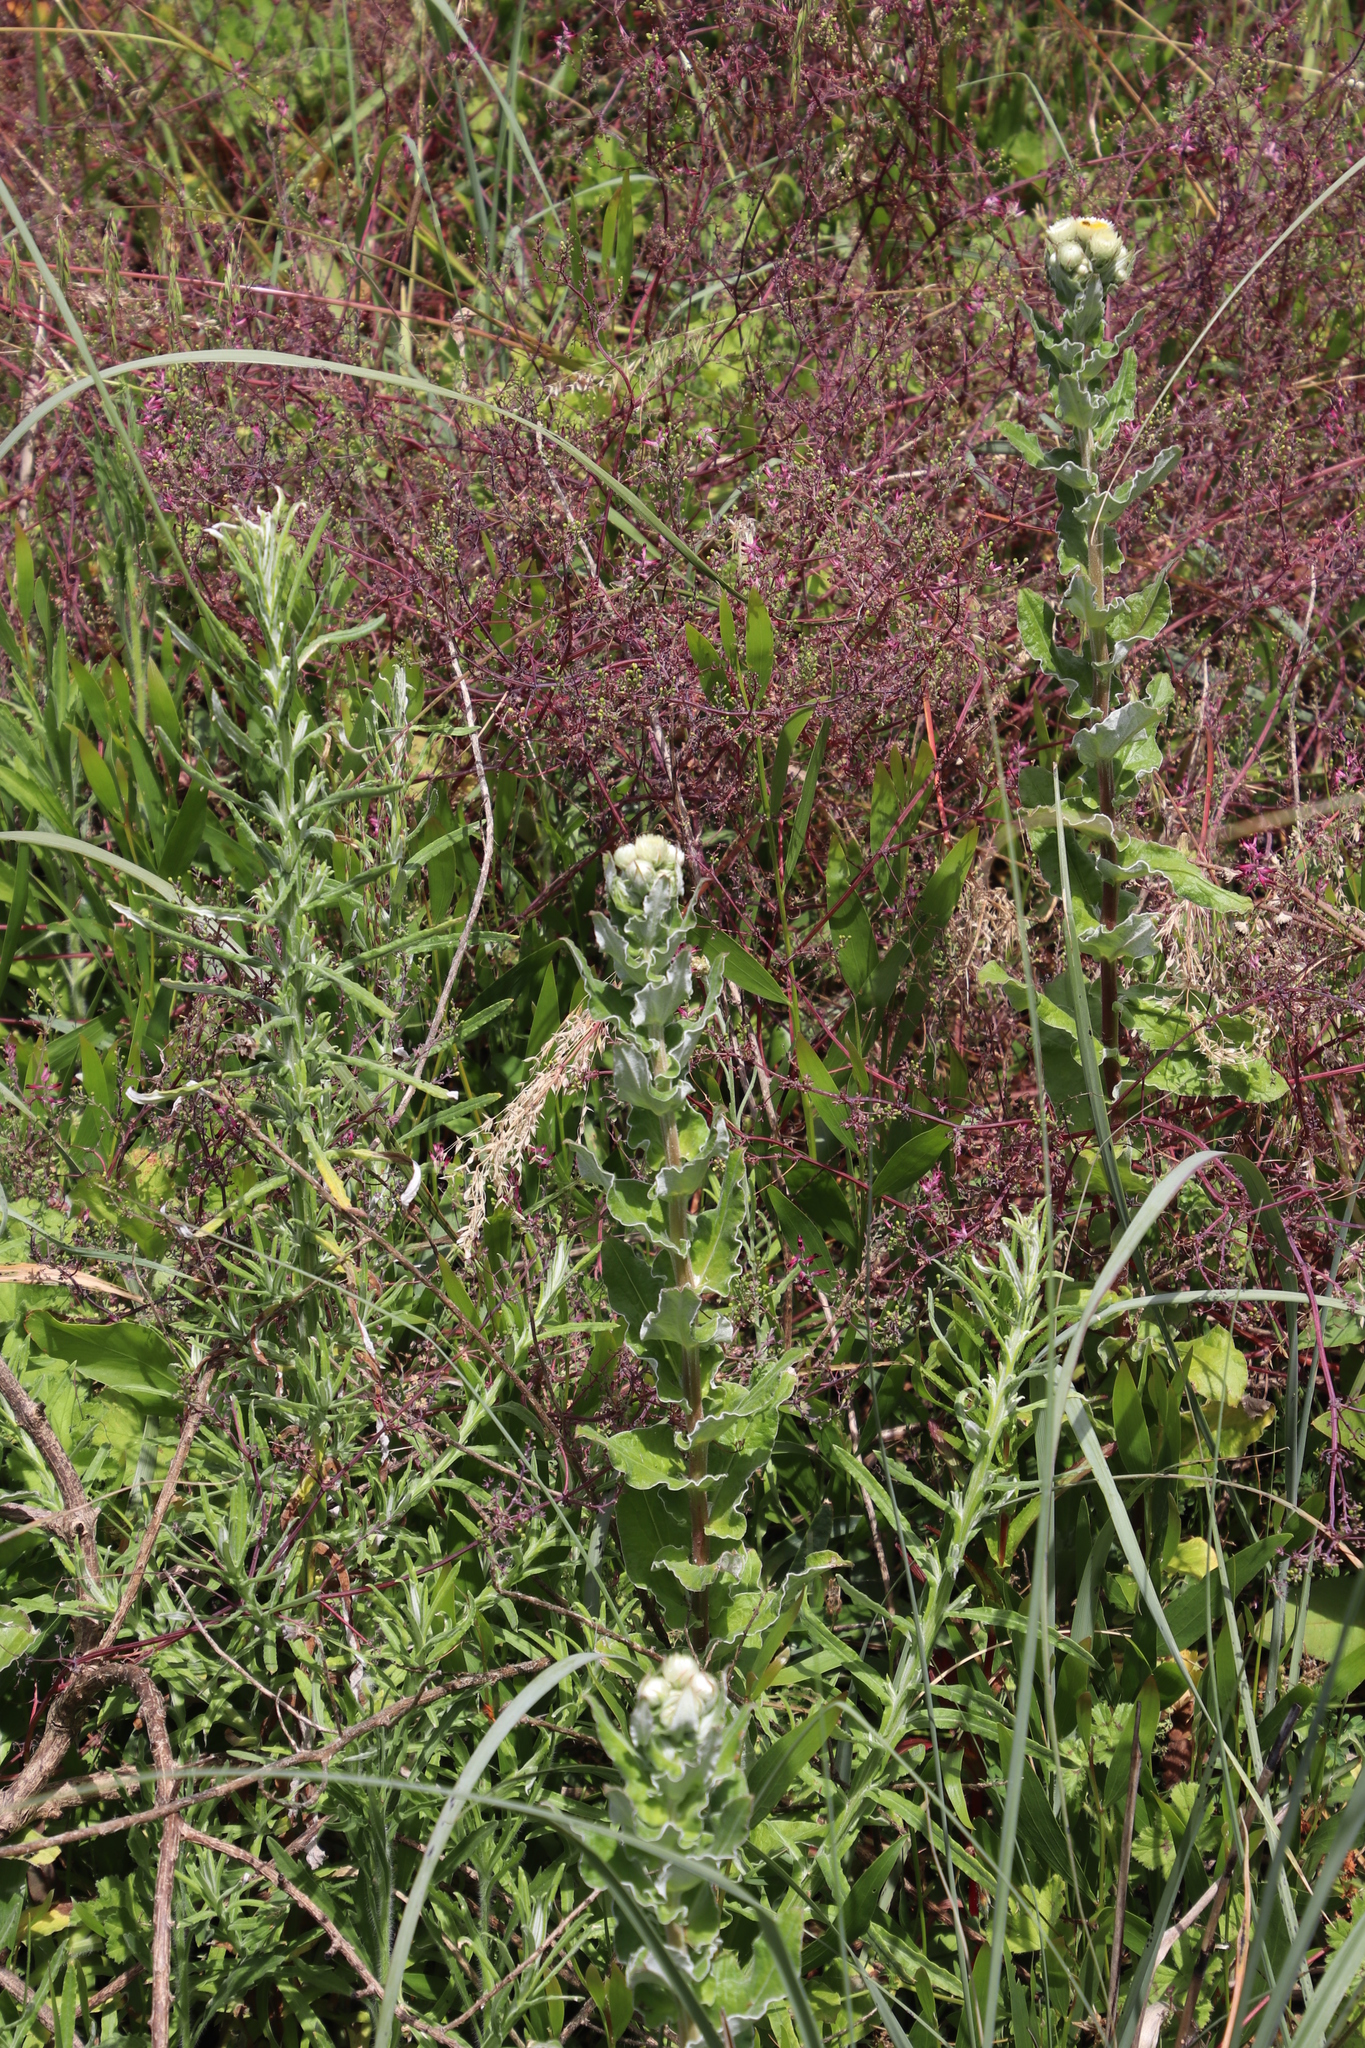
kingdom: Plantae
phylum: Tracheophyta
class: Magnoliopsida
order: Asterales
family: Asteraceae
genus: Helichrysum
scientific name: Helichrysum foetidum
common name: Stinking everlasting
